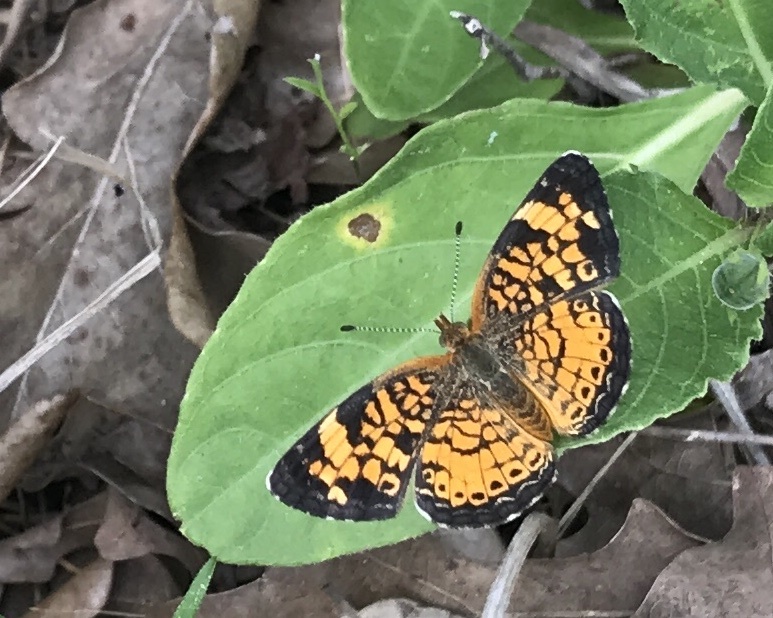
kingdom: Animalia
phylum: Arthropoda
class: Insecta
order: Lepidoptera
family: Nymphalidae
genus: Phyciodes
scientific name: Phyciodes tharos
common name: Pearl crescent
